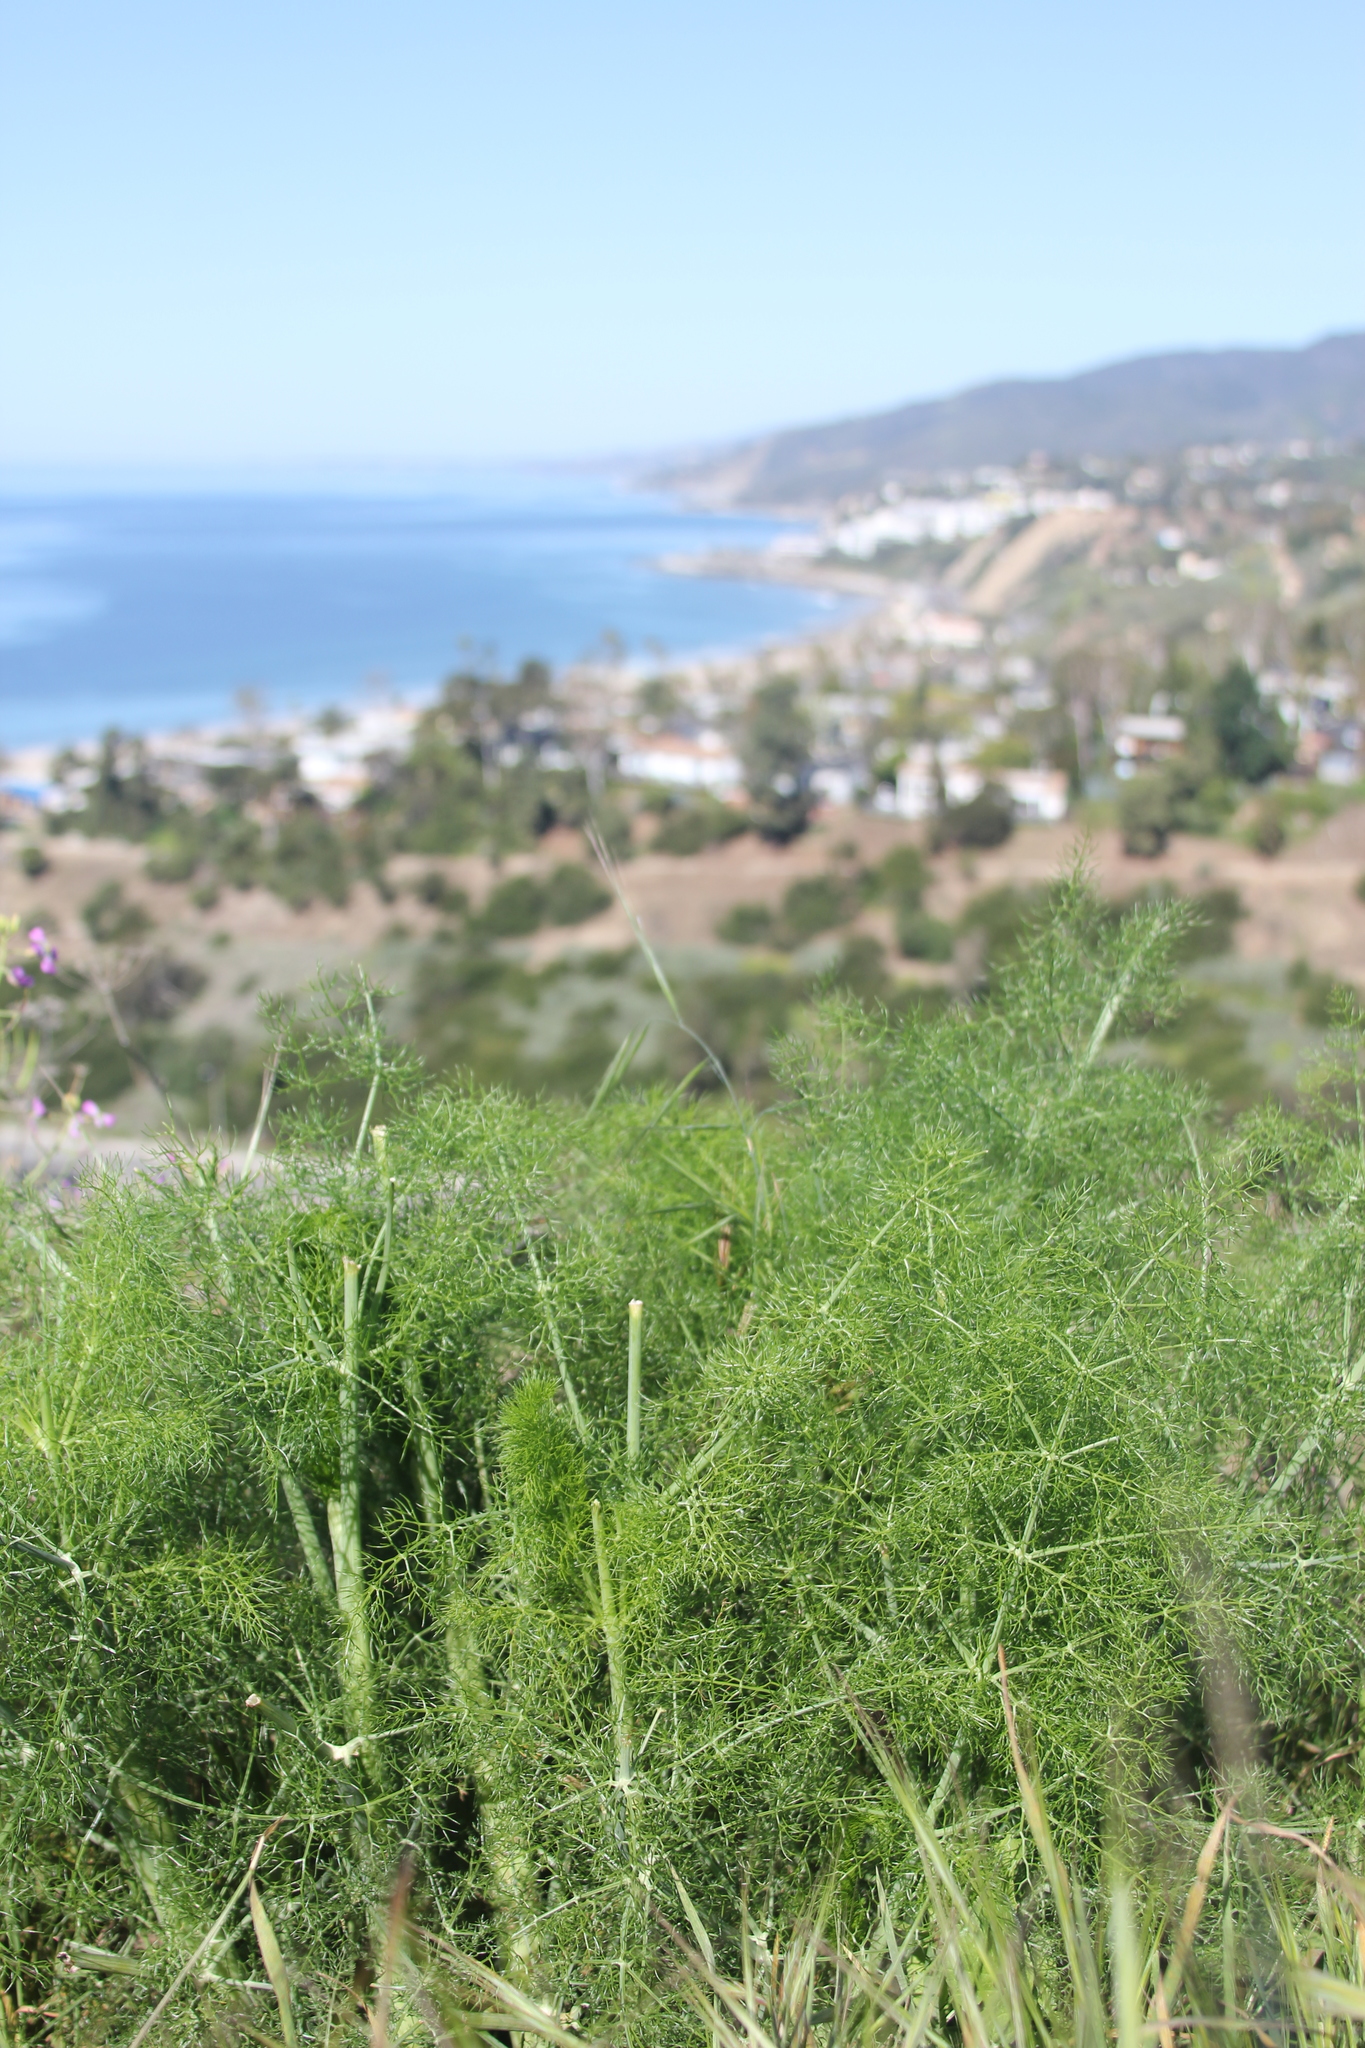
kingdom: Plantae
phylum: Tracheophyta
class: Magnoliopsida
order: Apiales
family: Apiaceae
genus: Foeniculum
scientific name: Foeniculum vulgare
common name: Fennel
